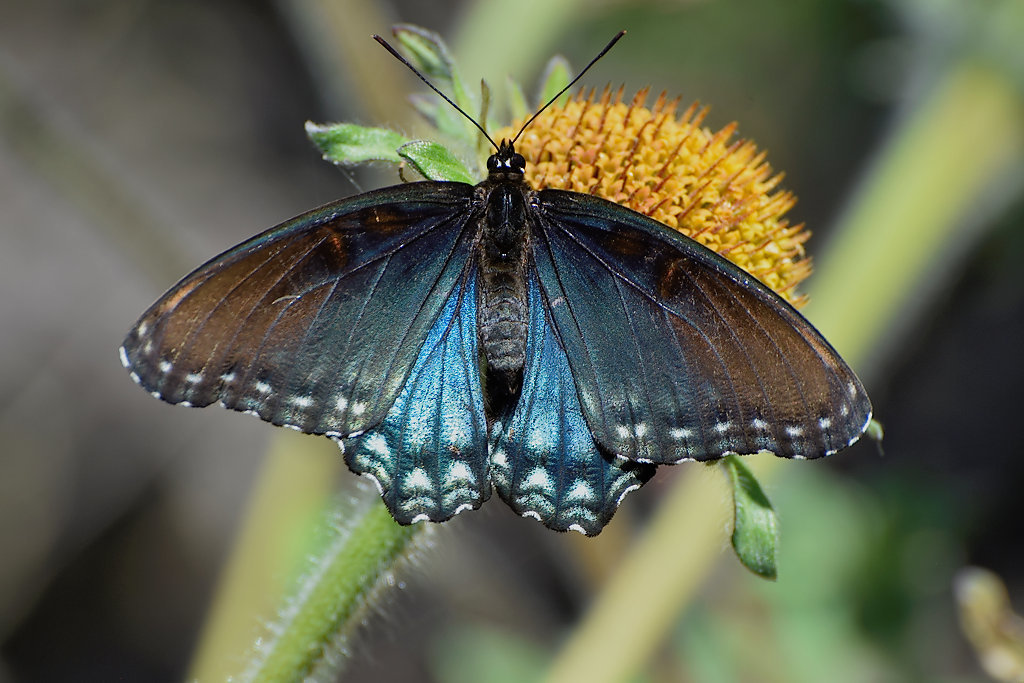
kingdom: Animalia
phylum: Arthropoda
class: Insecta
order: Lepidoptera
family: Nymphalidae
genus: Limenitis
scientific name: Limenitis arthemis
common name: Red-spotted admiral
